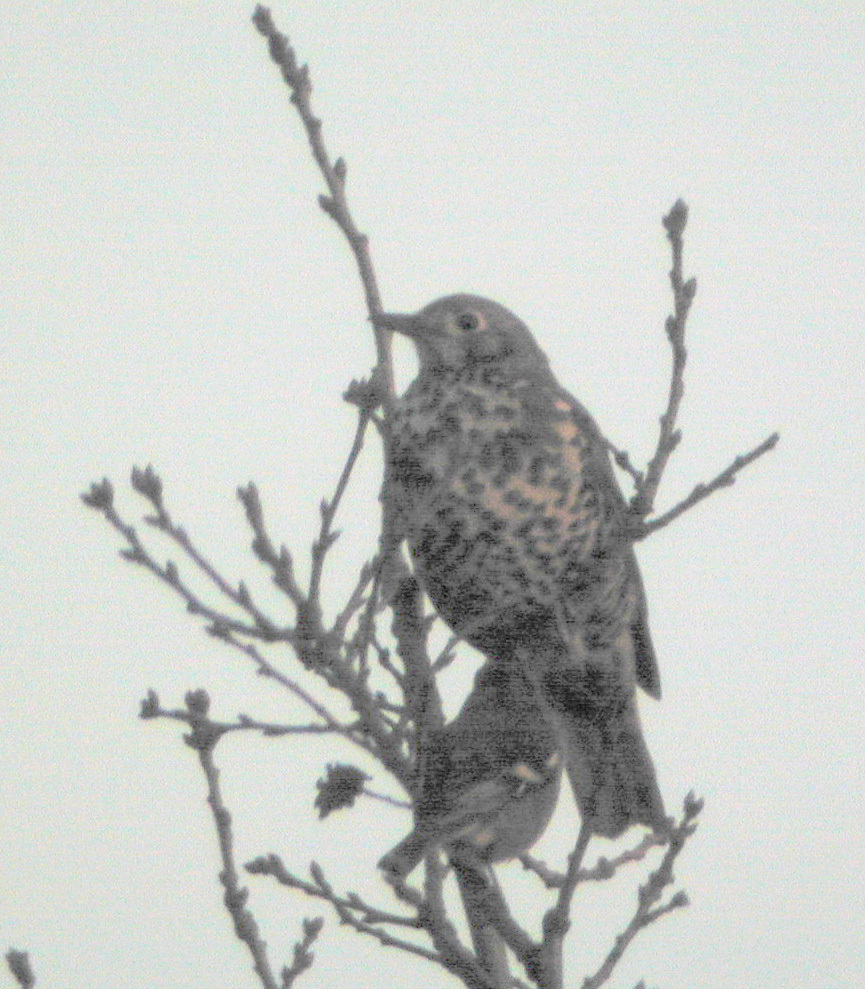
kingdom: Animalia
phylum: Chordata
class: Aves
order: Passeriformes
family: Turdidae
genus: Turdus
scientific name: Turdus viscivorus
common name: Mistle thrush
